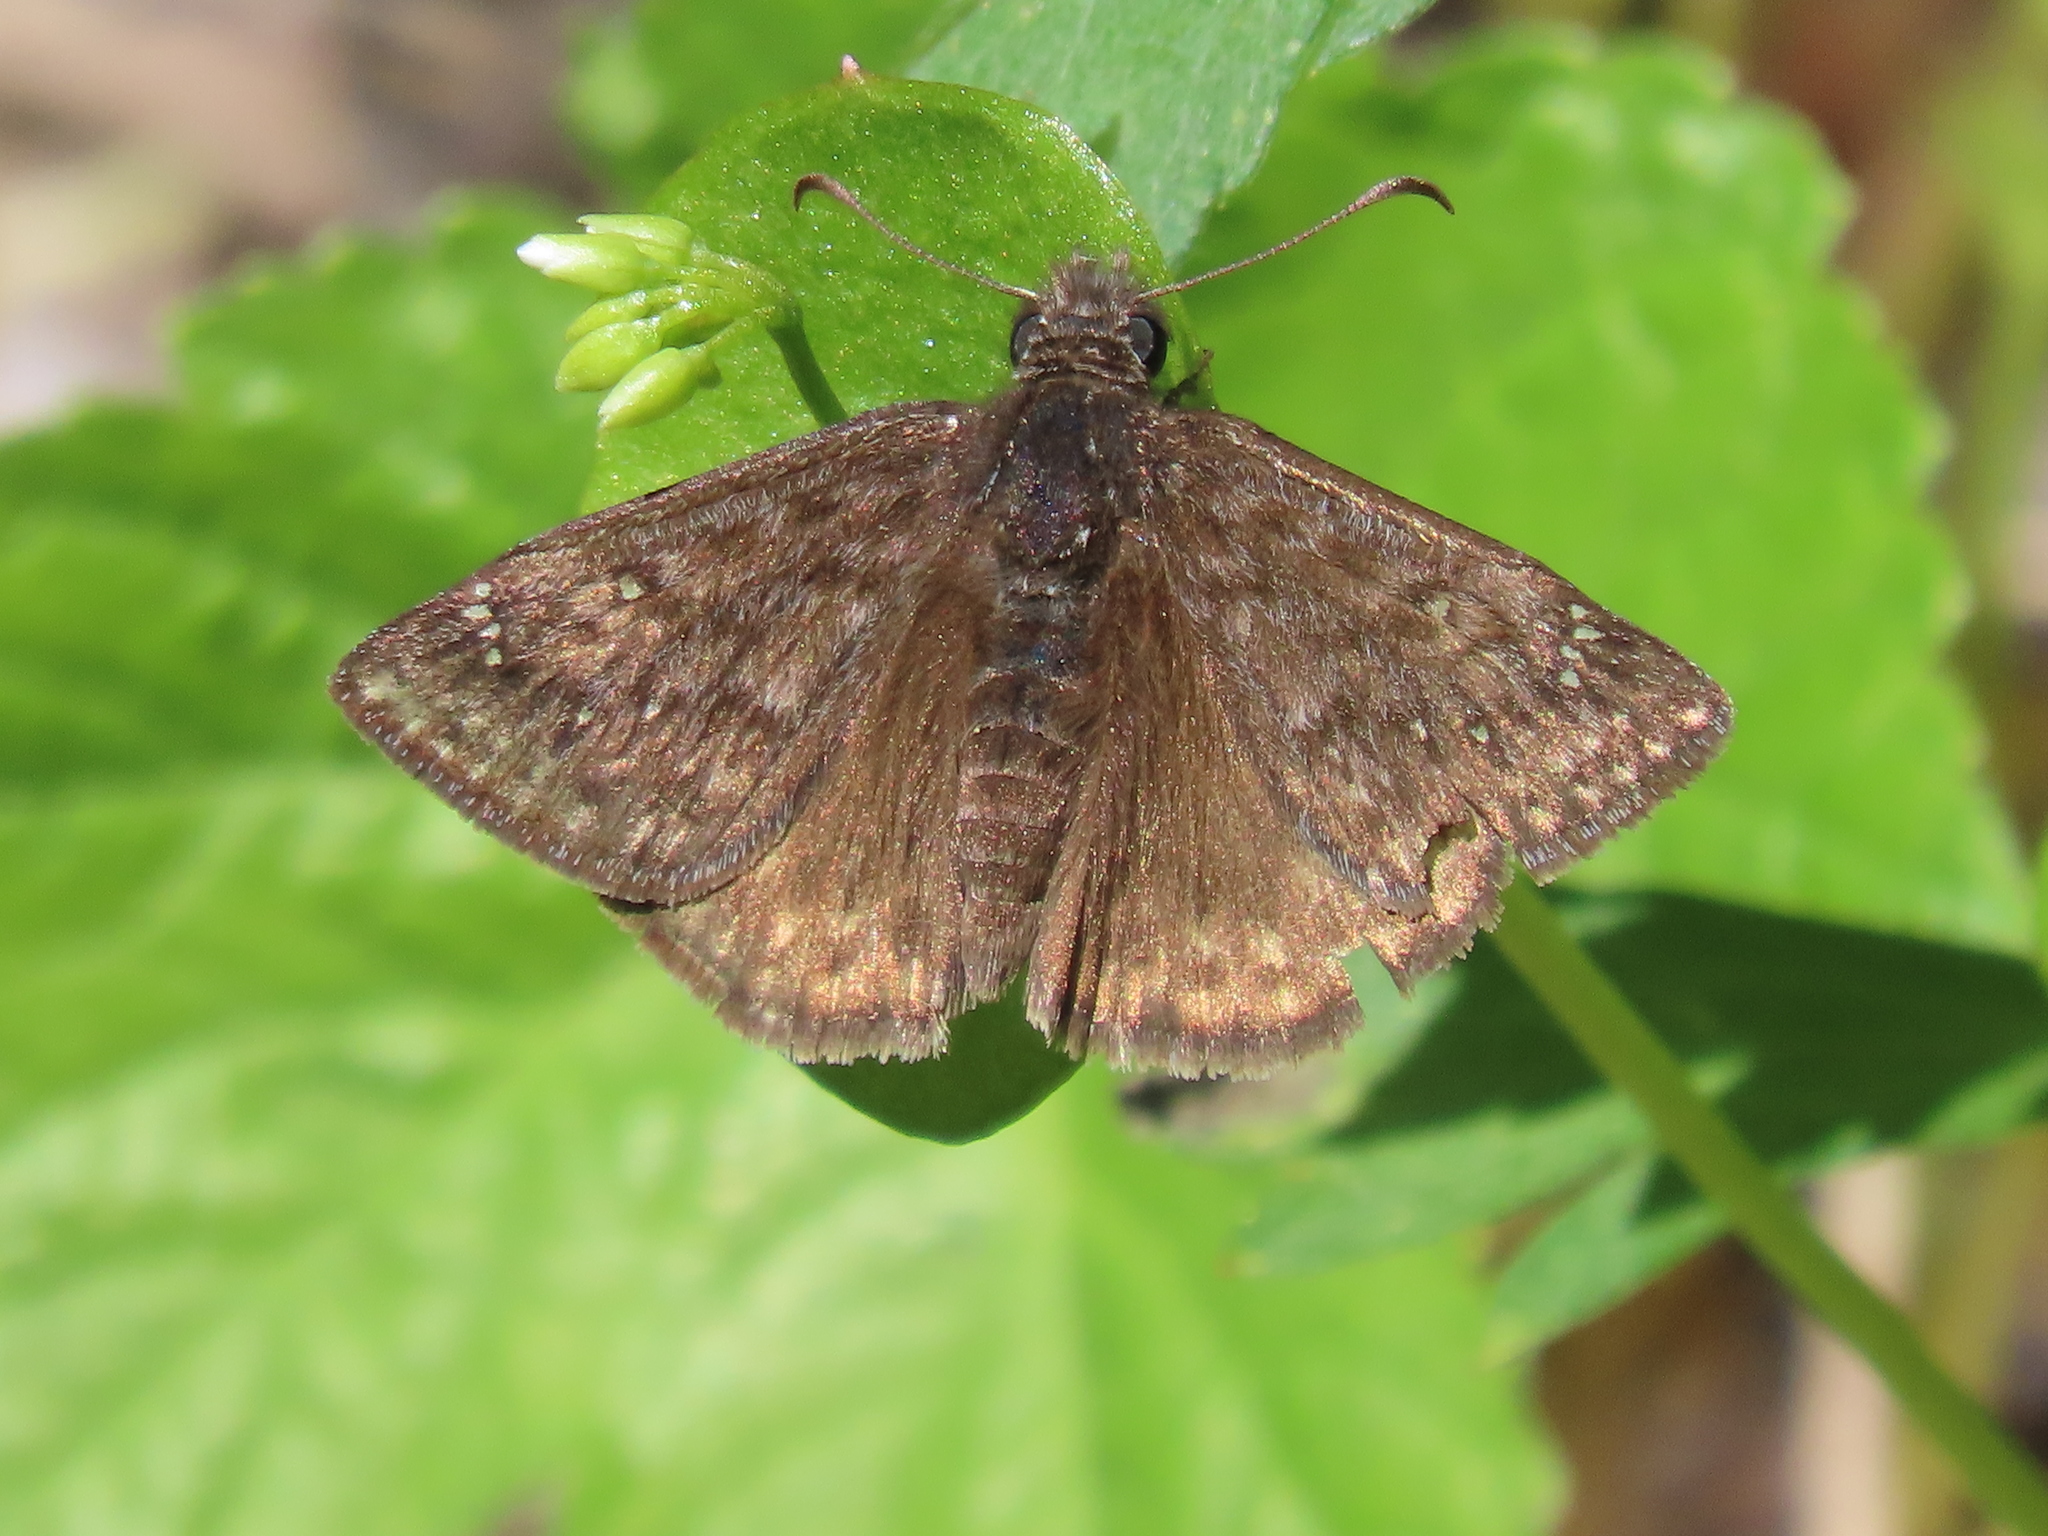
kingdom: Animalia
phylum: Arthropoda
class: Insecta
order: Lepidoptera
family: Hesperiidae
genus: Erynnis
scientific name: Erynnis propertius
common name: Propertius duskywing
